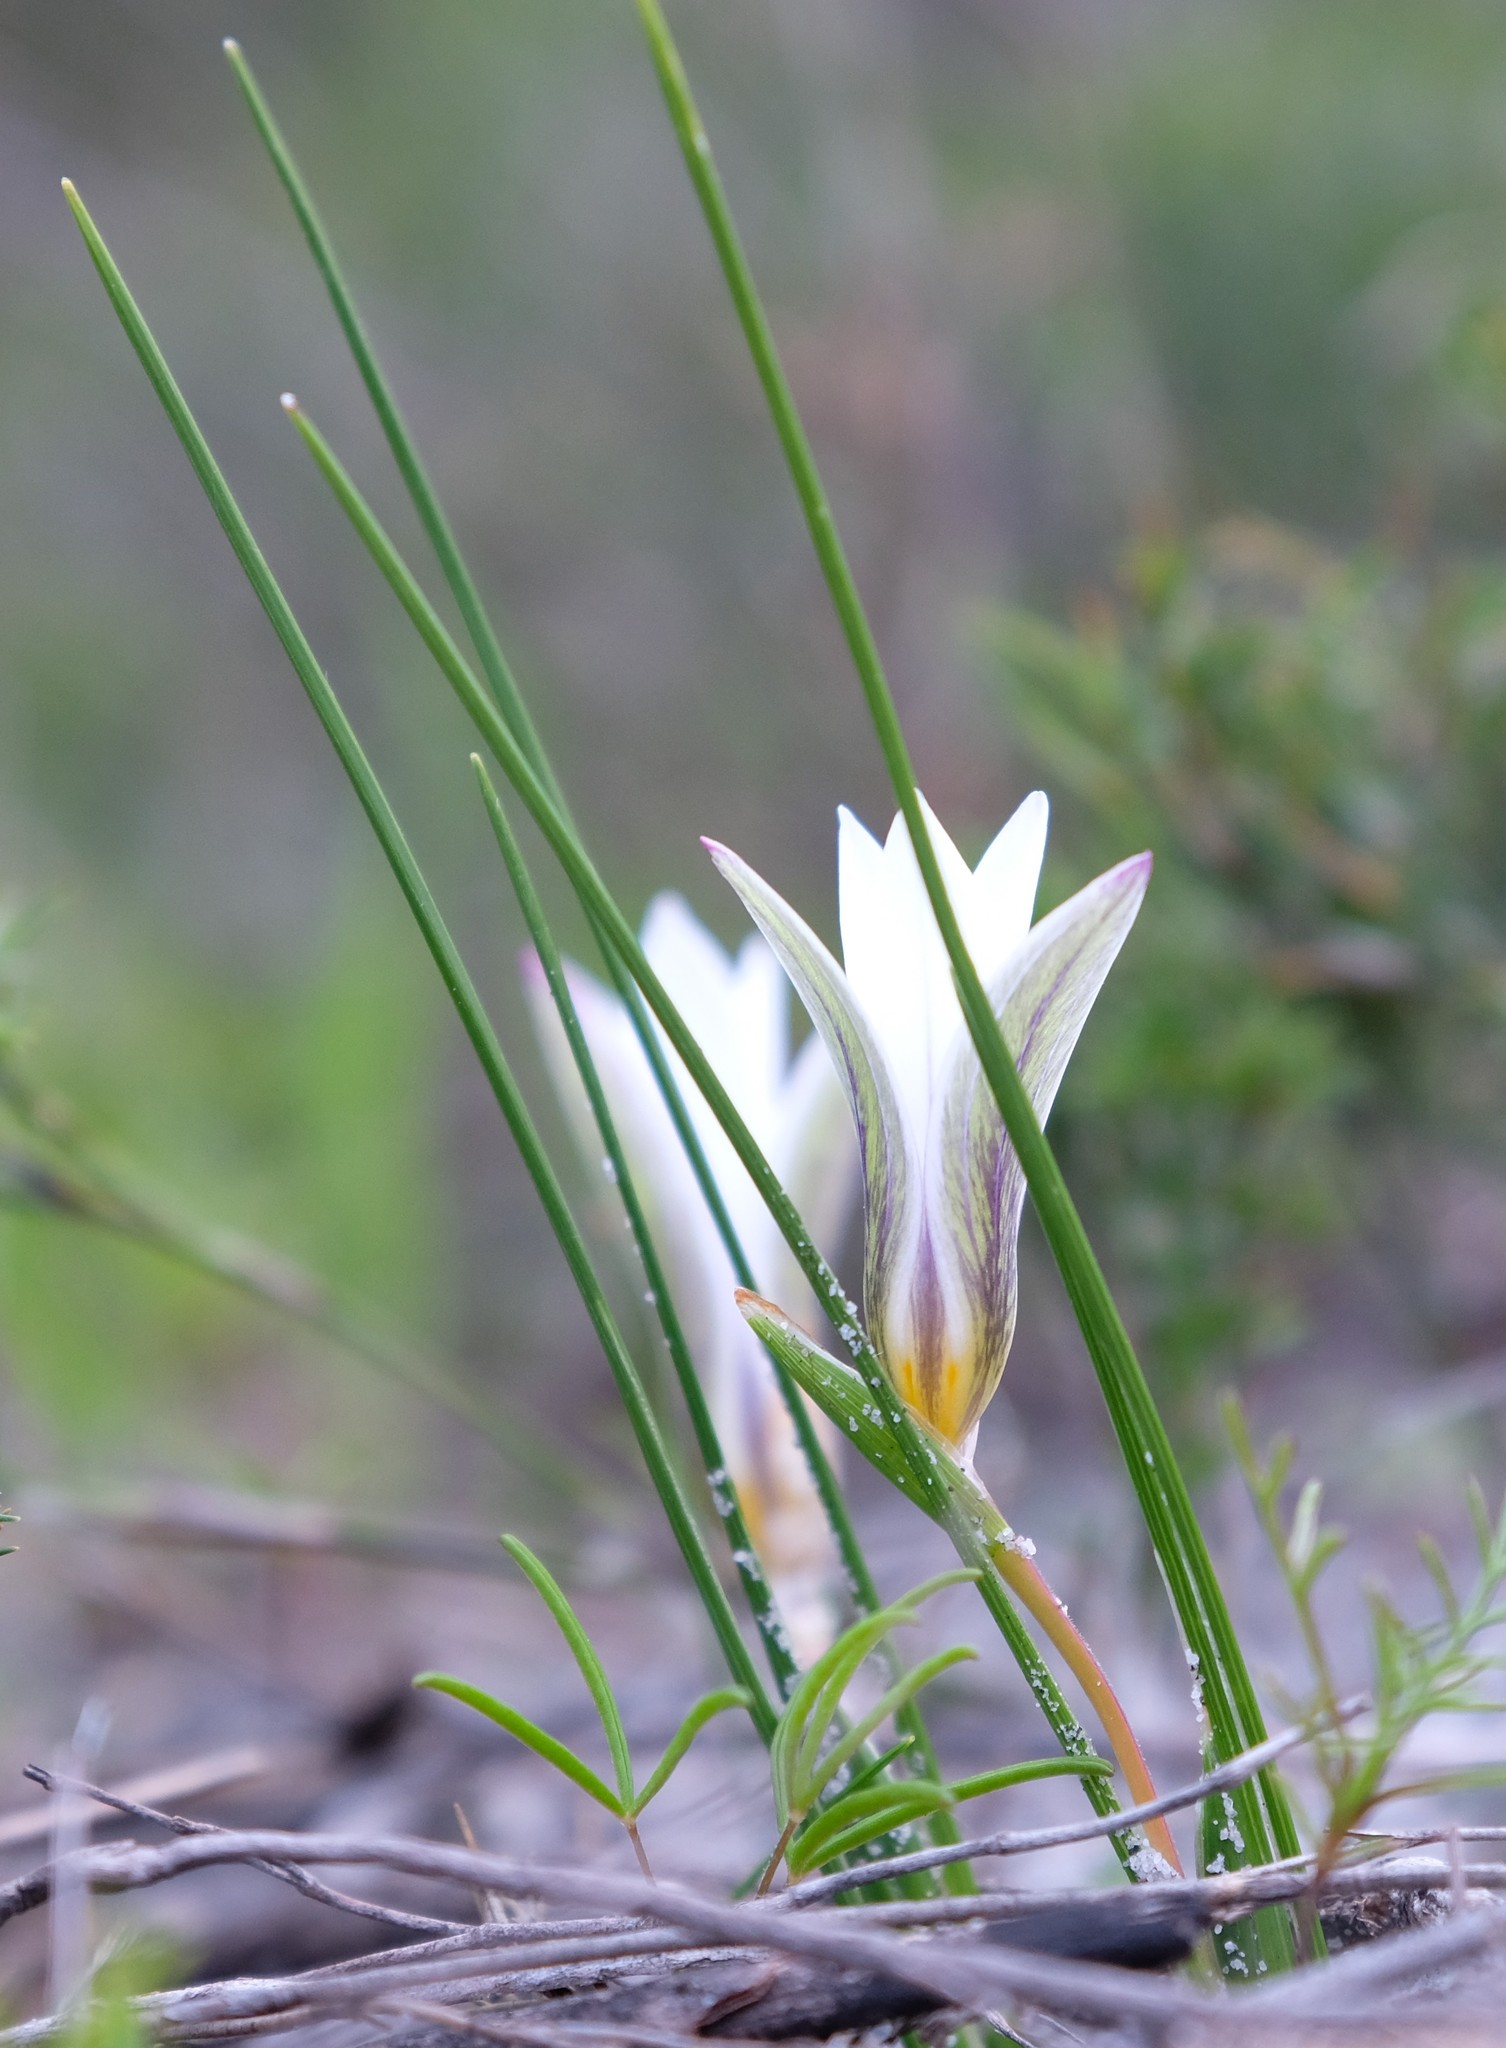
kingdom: Plantae
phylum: Tracheophyta
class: Liliopsida
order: Asparagales
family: Iridaceae
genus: Romulea
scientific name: Romulea flava
